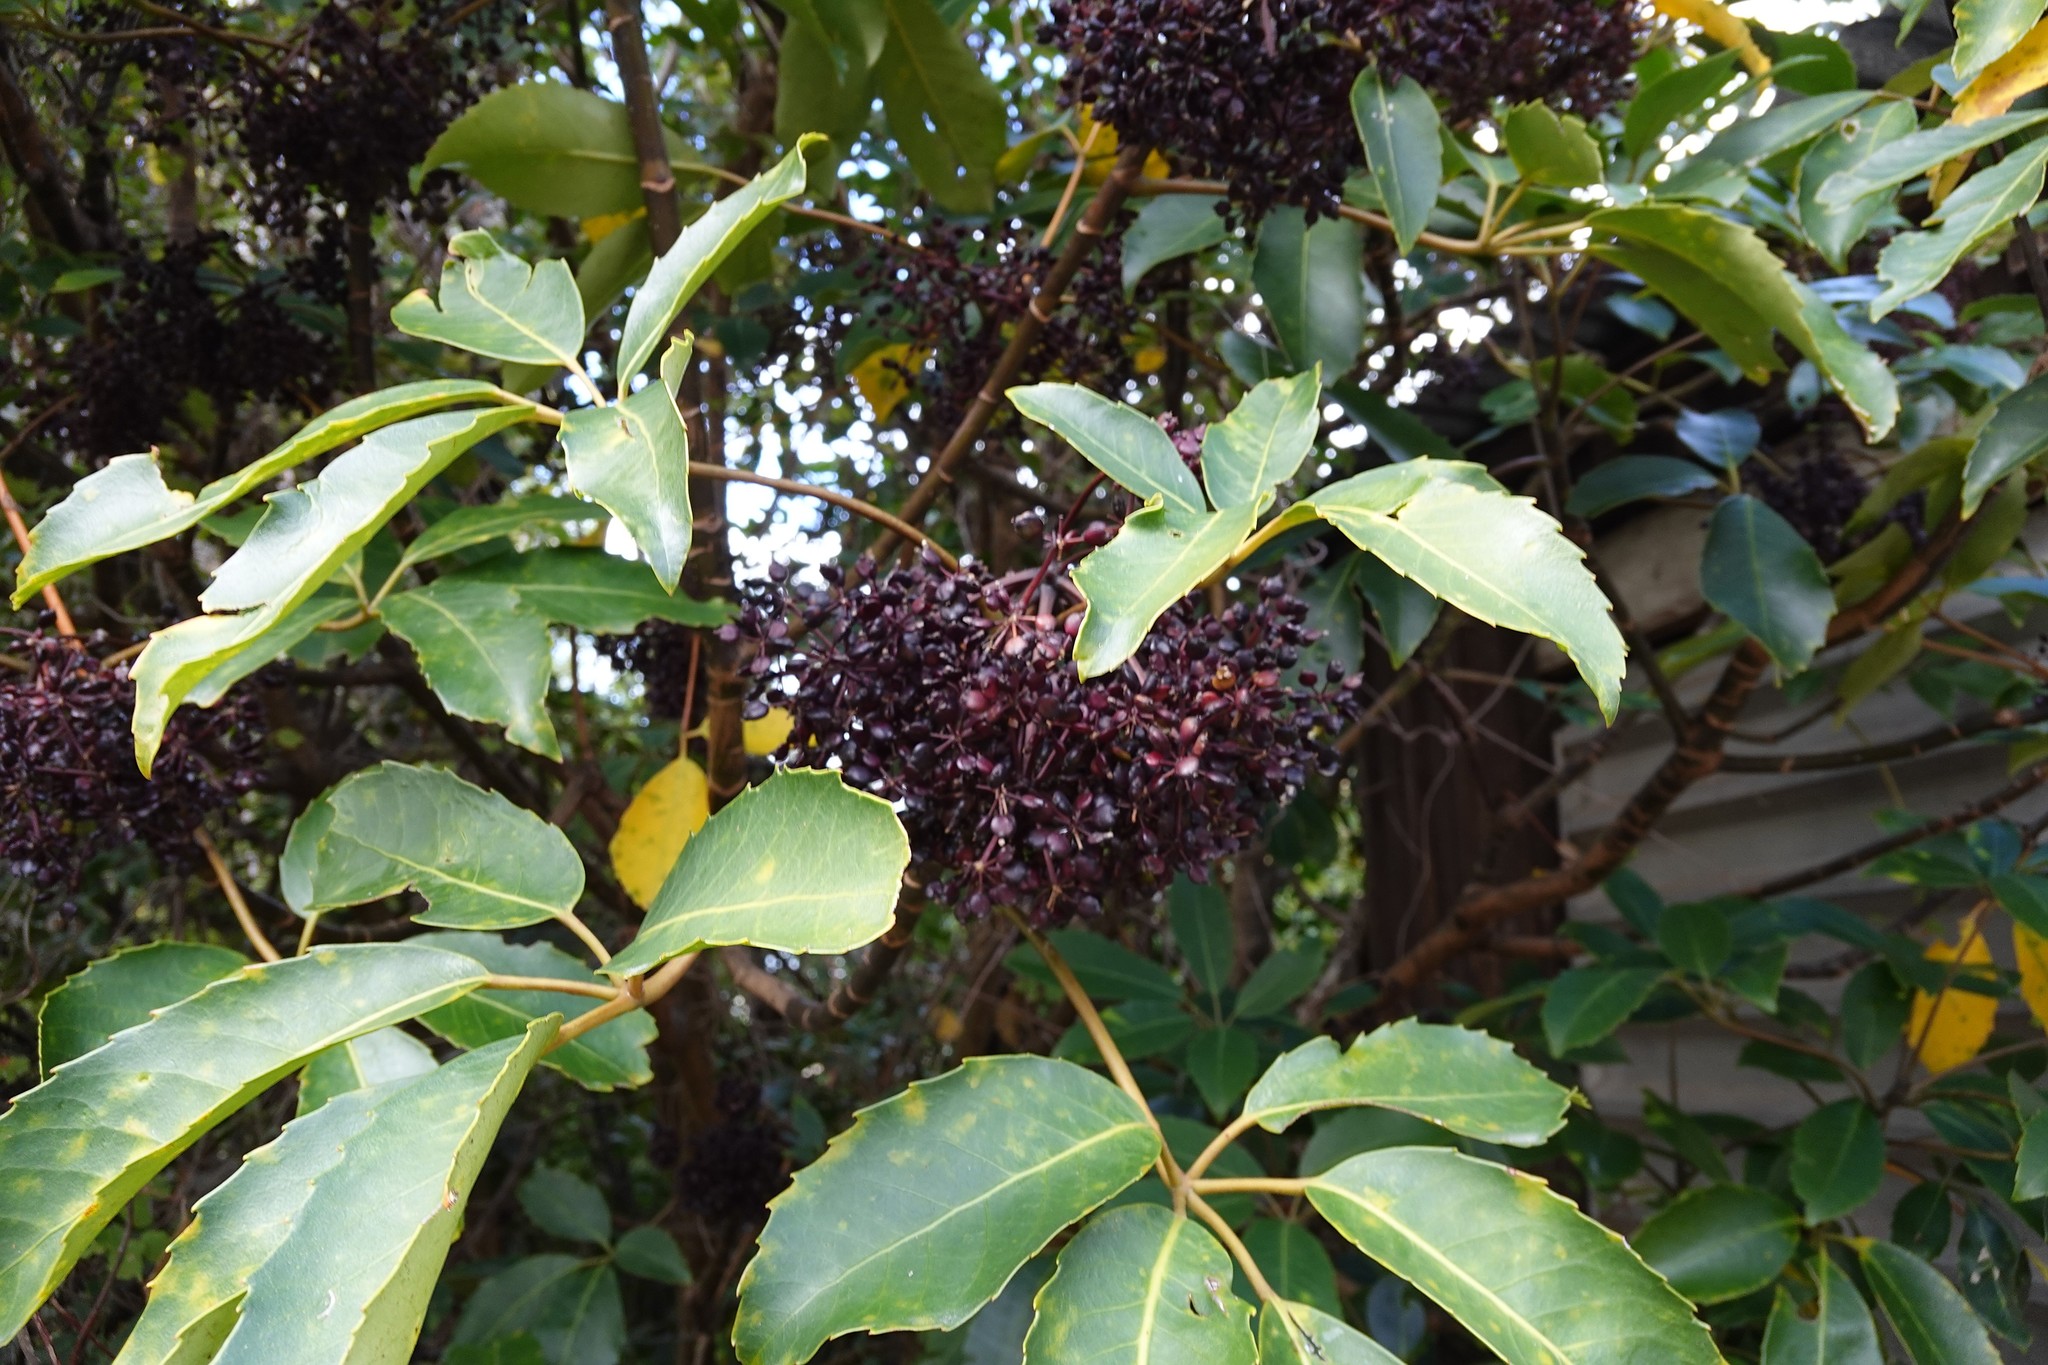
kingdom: Plantae
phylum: Tracheophyta
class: Magnoliopsida
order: Apiales
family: Araliaceae
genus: Neopanax
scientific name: Neopanax arboreus
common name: Five-fingers
